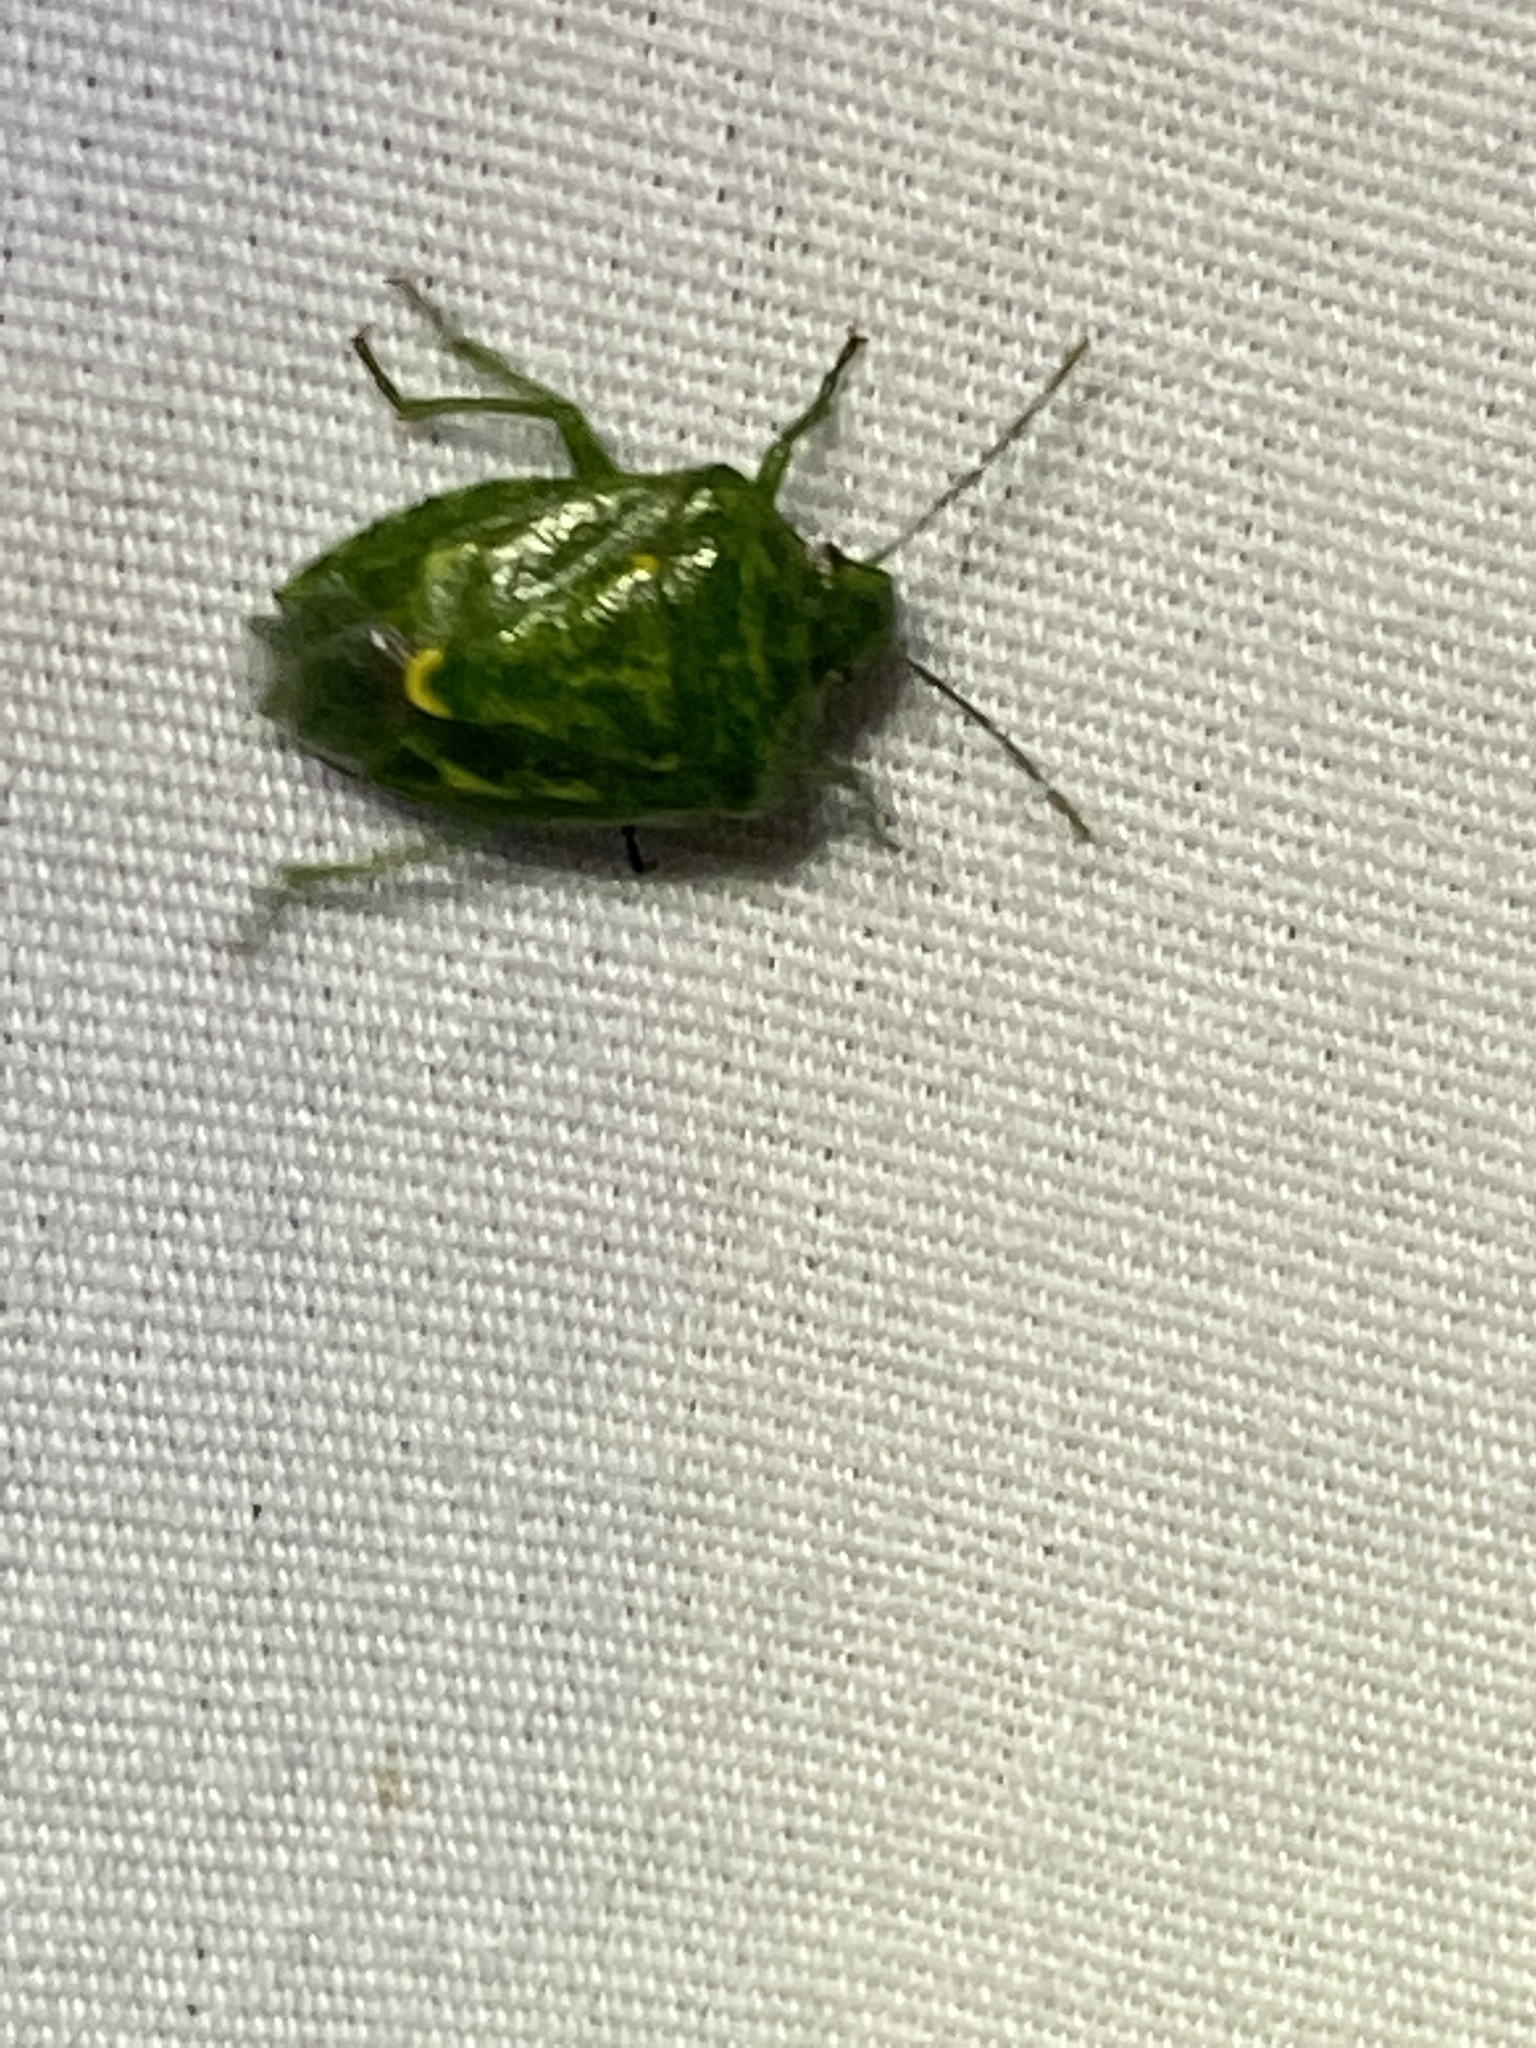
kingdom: Animalia
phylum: Arthropoda
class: Insecta
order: Hemiptera
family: Pentatomidae
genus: Banasa
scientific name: Banasa euchlora
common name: Cedar berry bug
